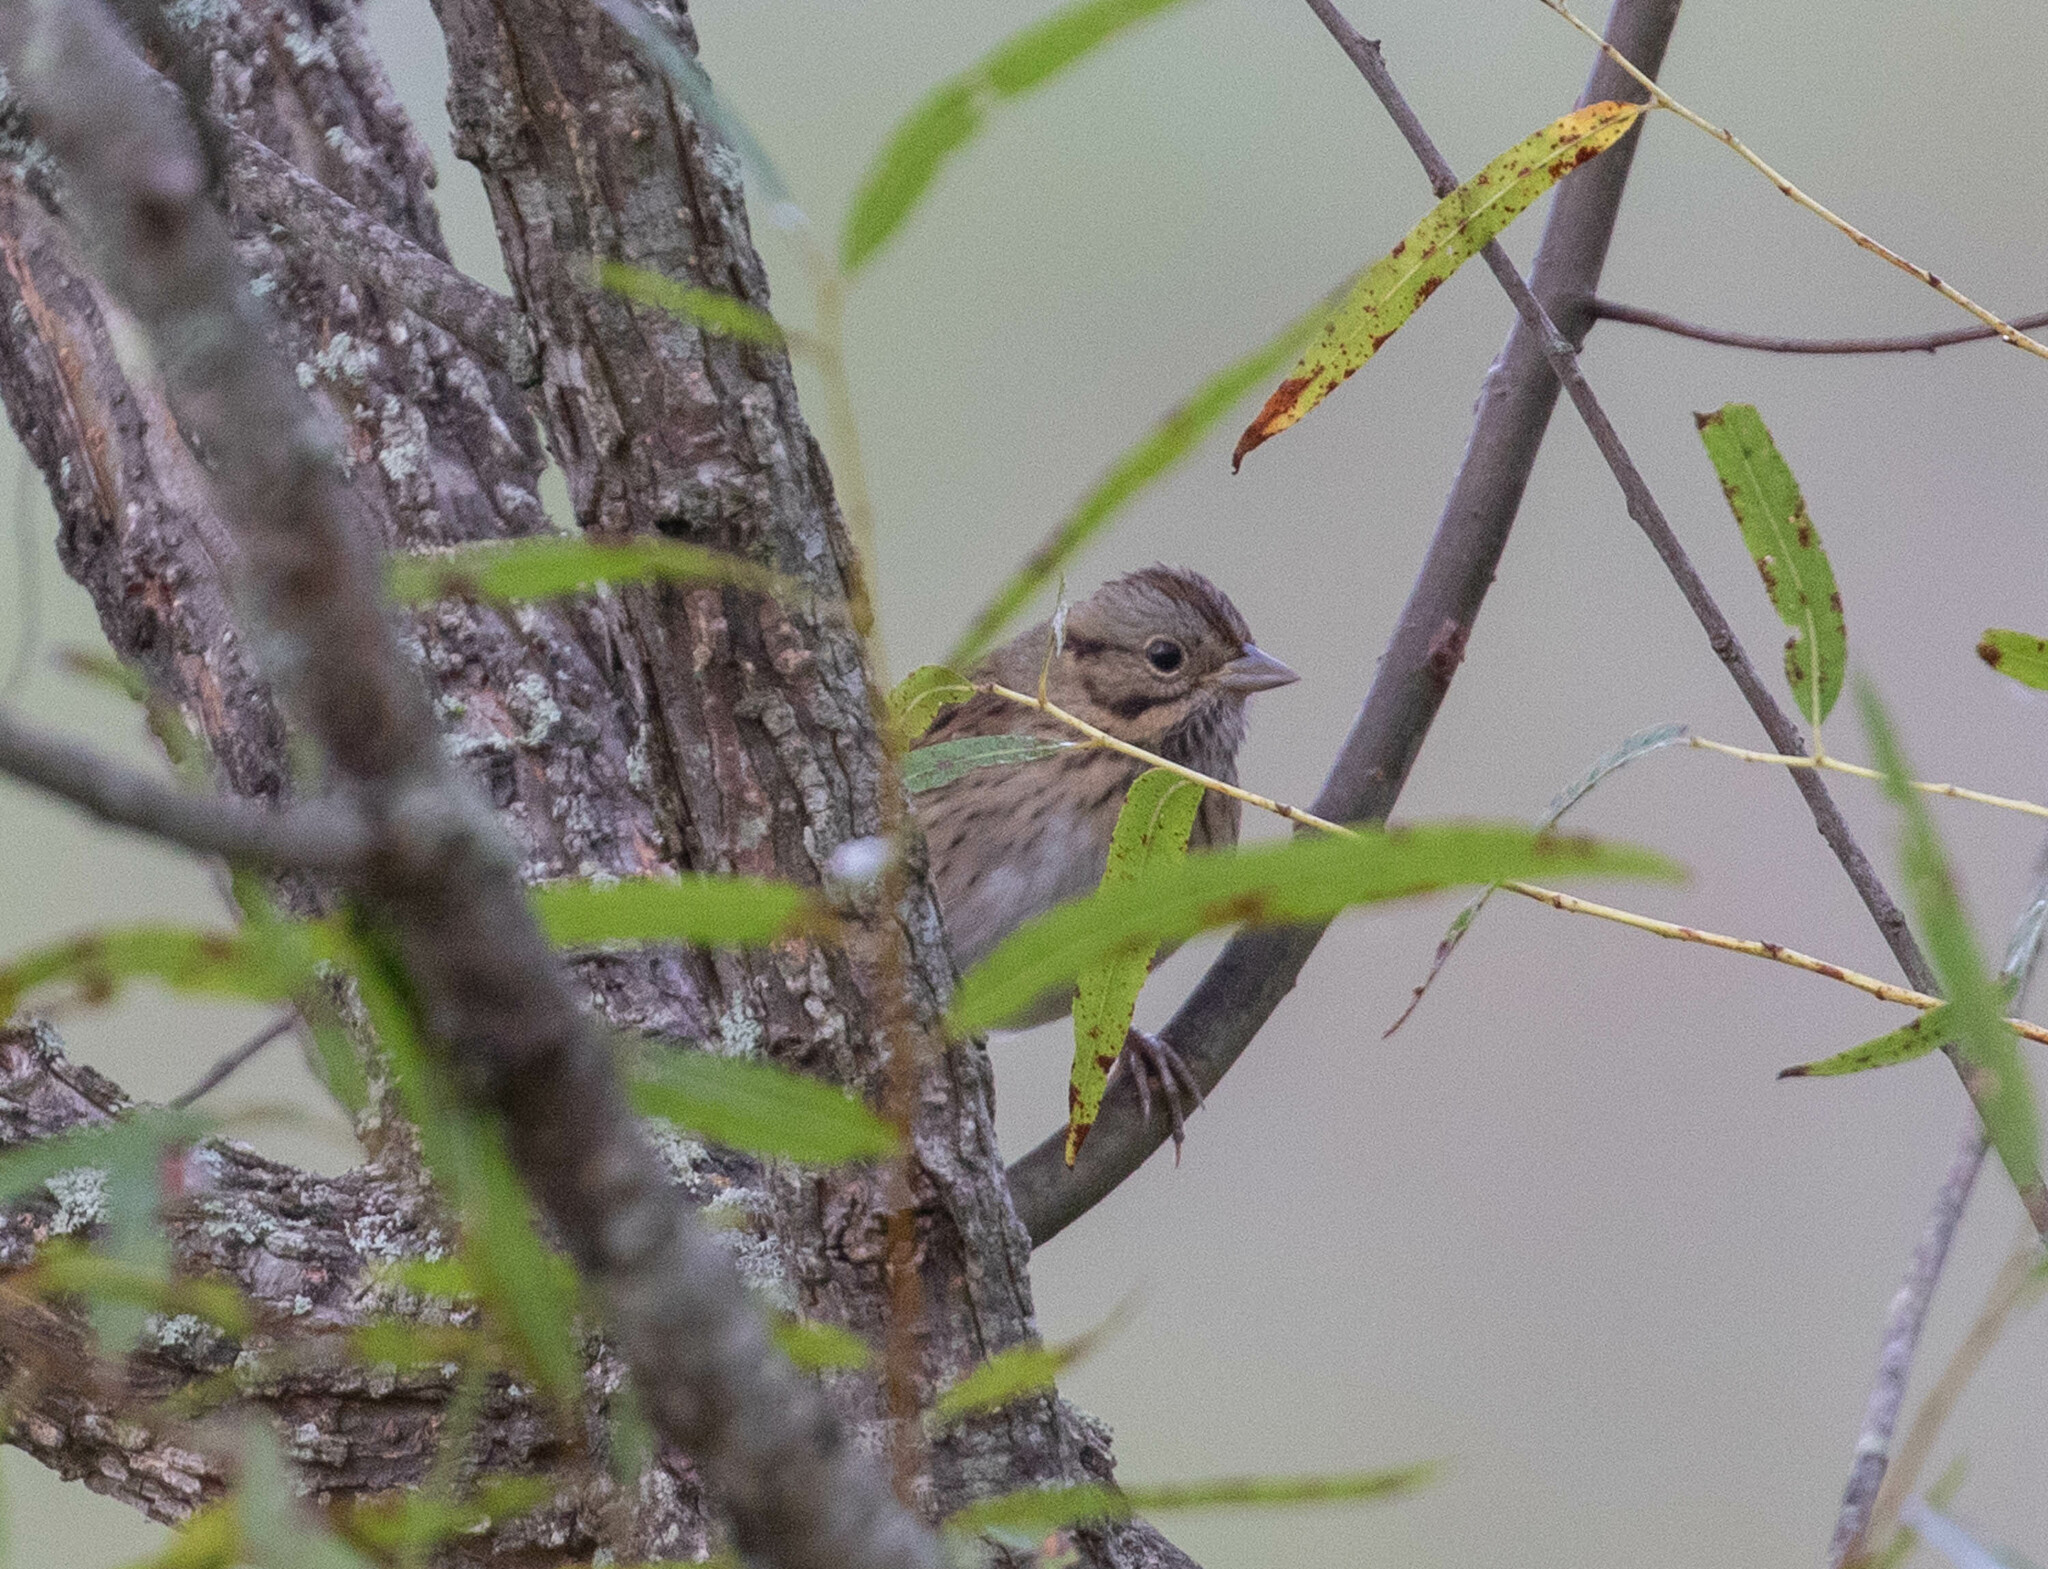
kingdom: Animalia
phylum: Chordata
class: Aves
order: Passeriformes
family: Passerellidae
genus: Melospiza
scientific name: Melospiza lincolnii
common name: Lincoln's sparrow
